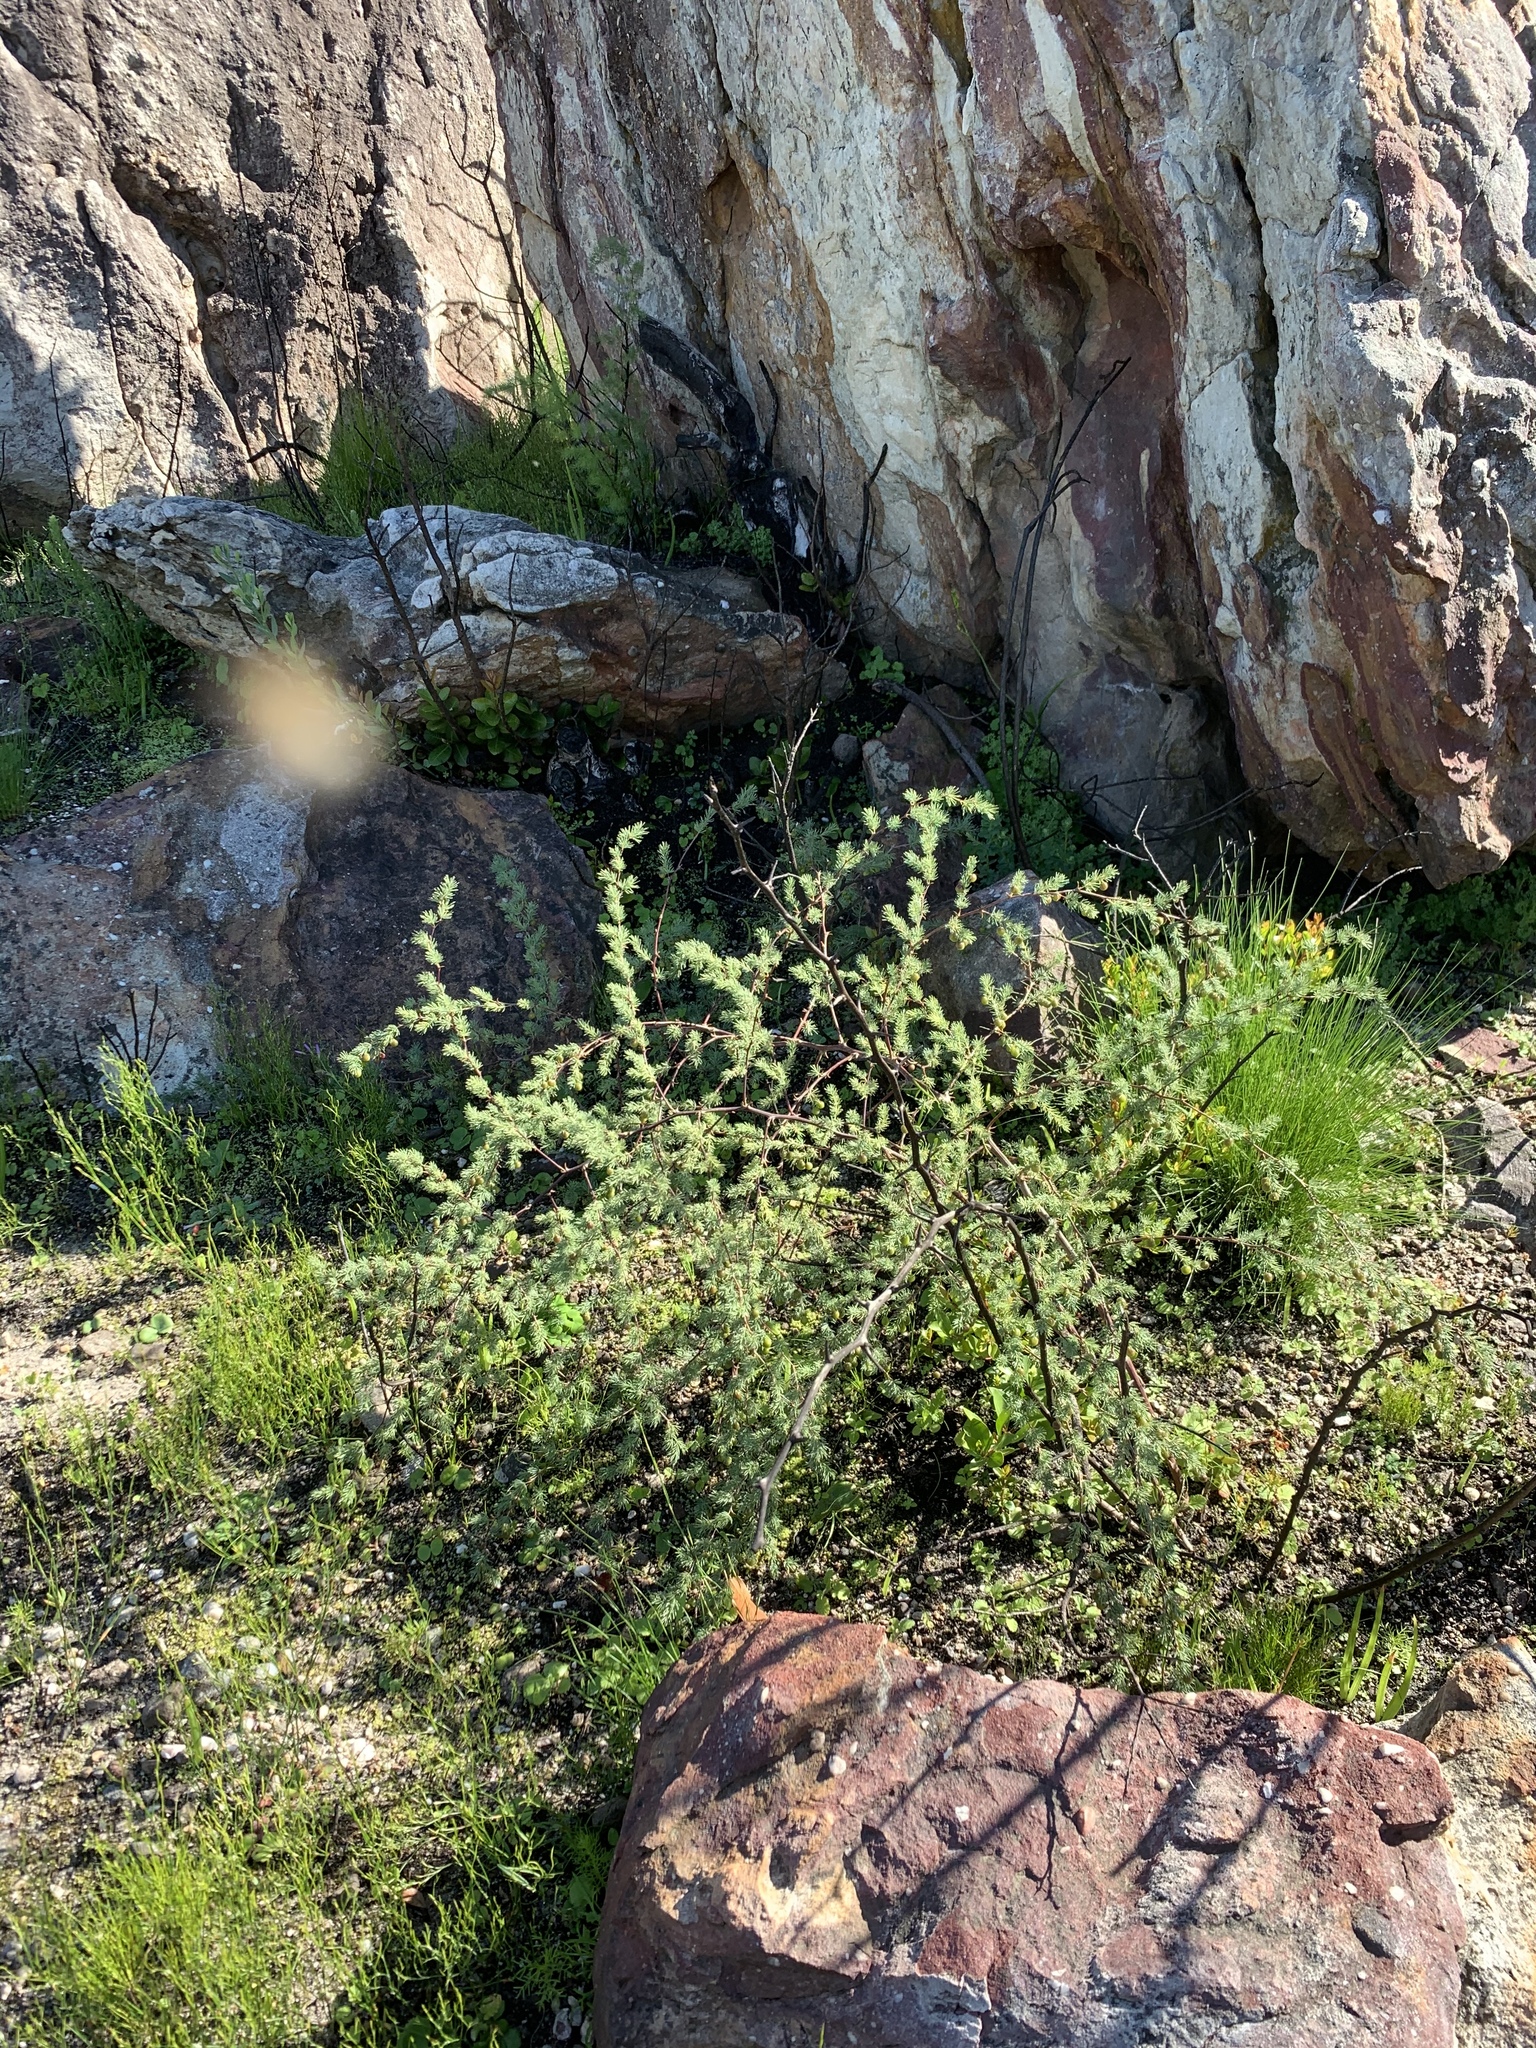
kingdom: Plantae
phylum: Tracheophyta
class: Liliopsida
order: Asparagales
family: Asparagaceae
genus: Asparagus
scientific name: Asparagus rubicundus
